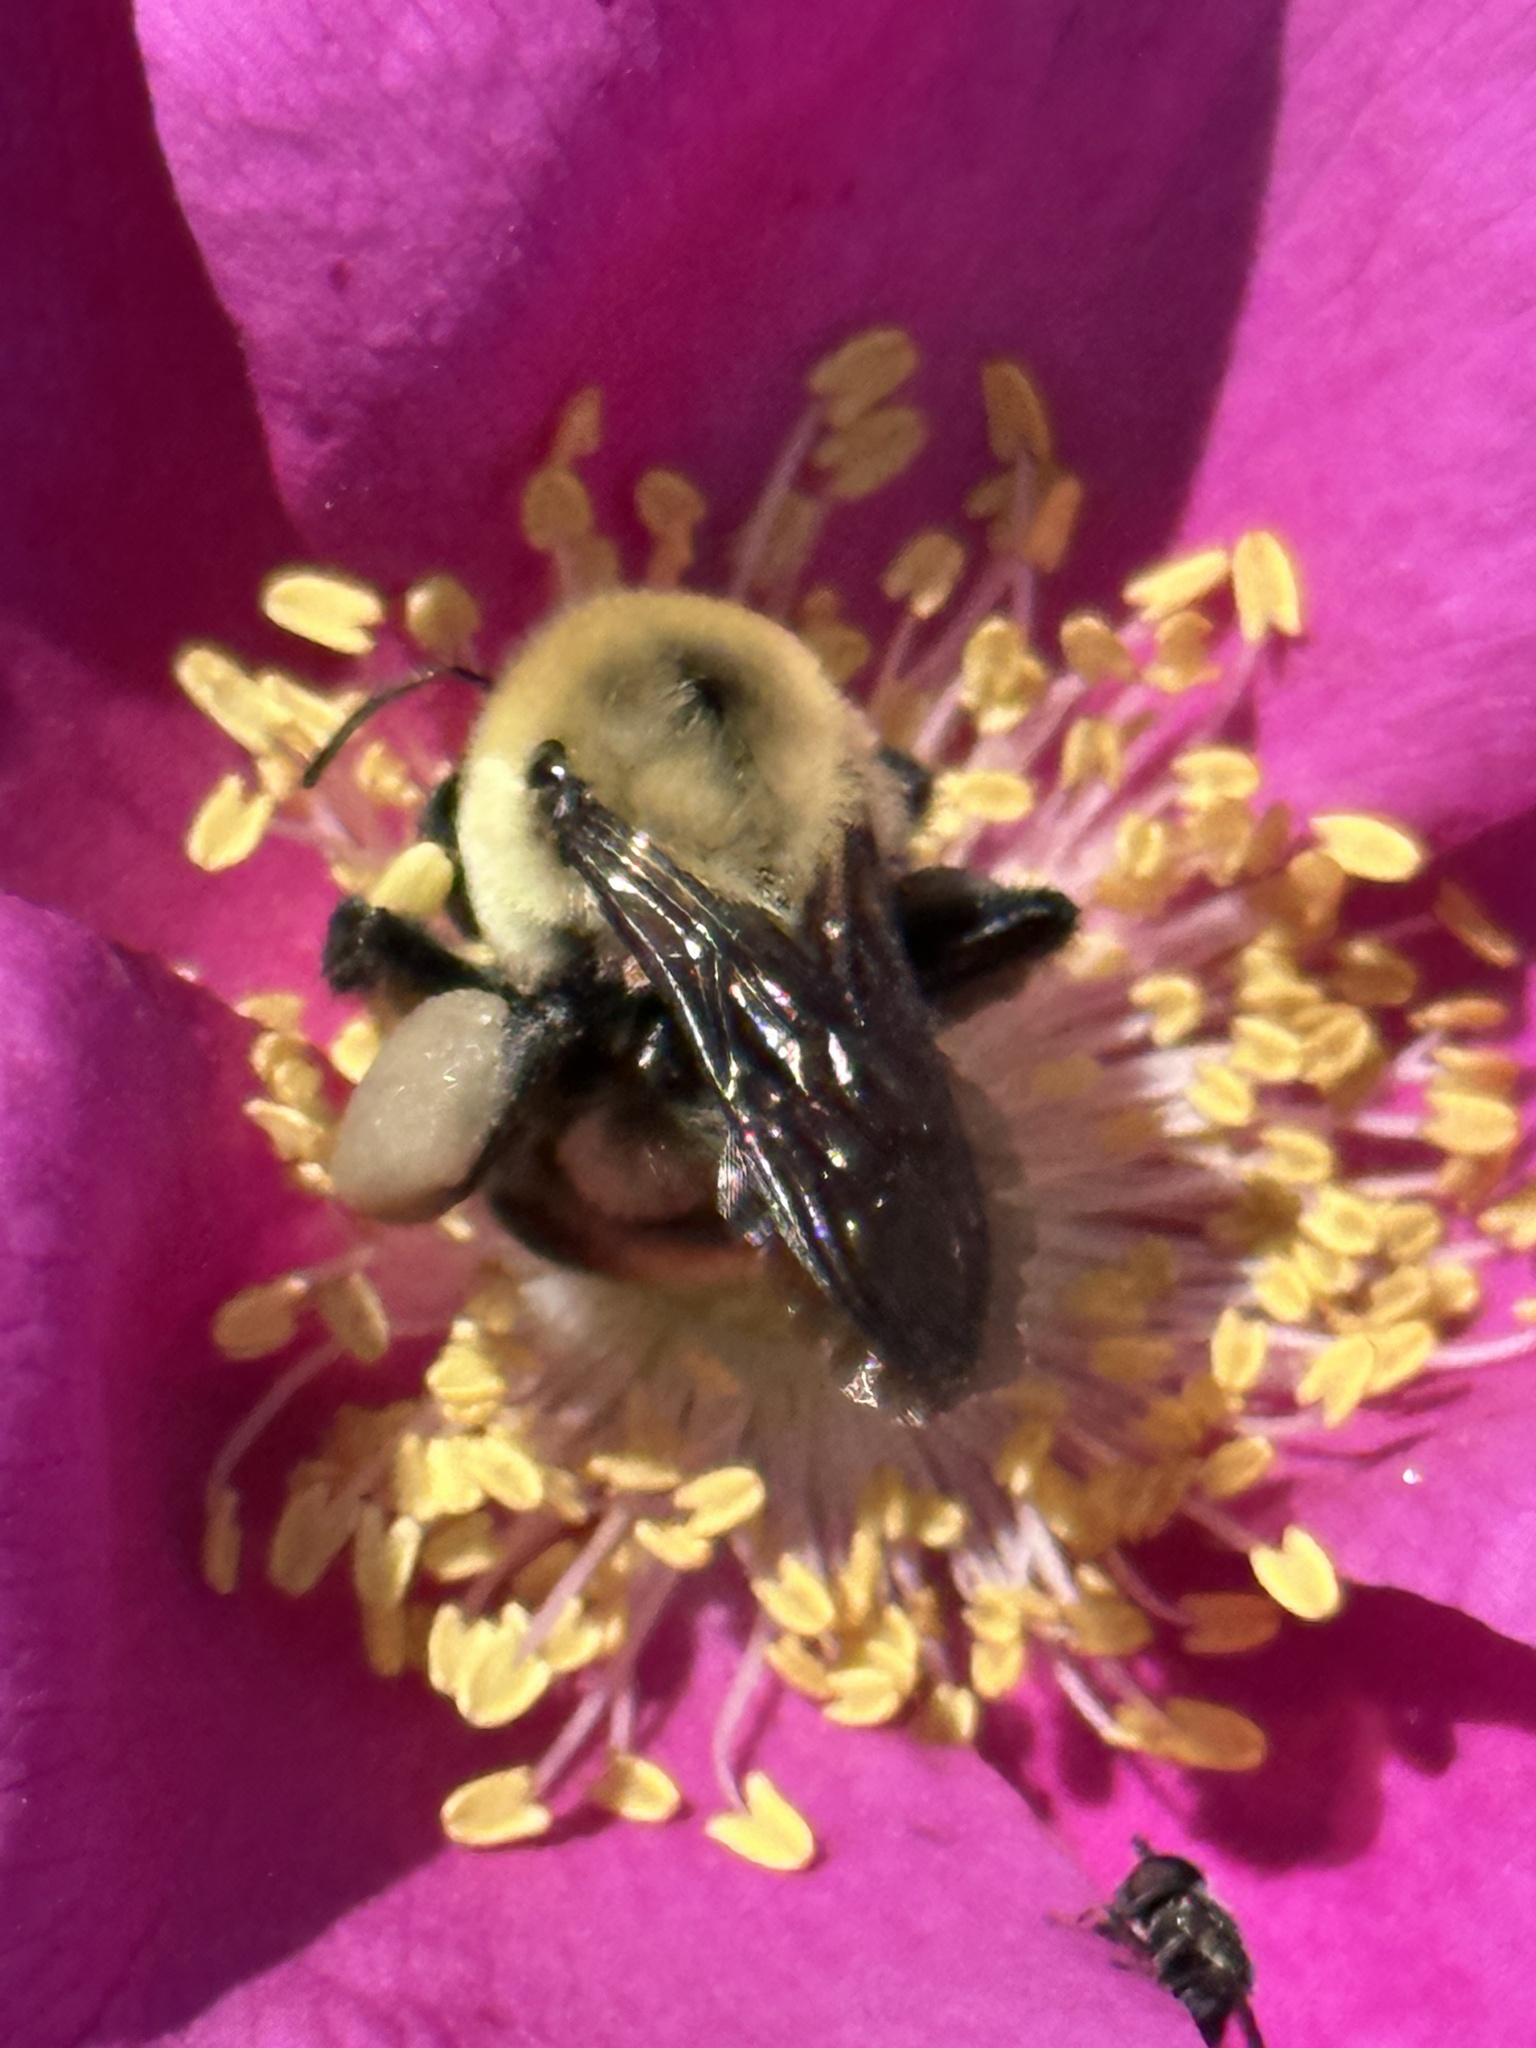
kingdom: Animalia
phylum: Arthropoda
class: Insecta
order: Hymenoptera
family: Apidae
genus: Bombus
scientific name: Bombus griseocollis
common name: Brown-belted bumble bee
